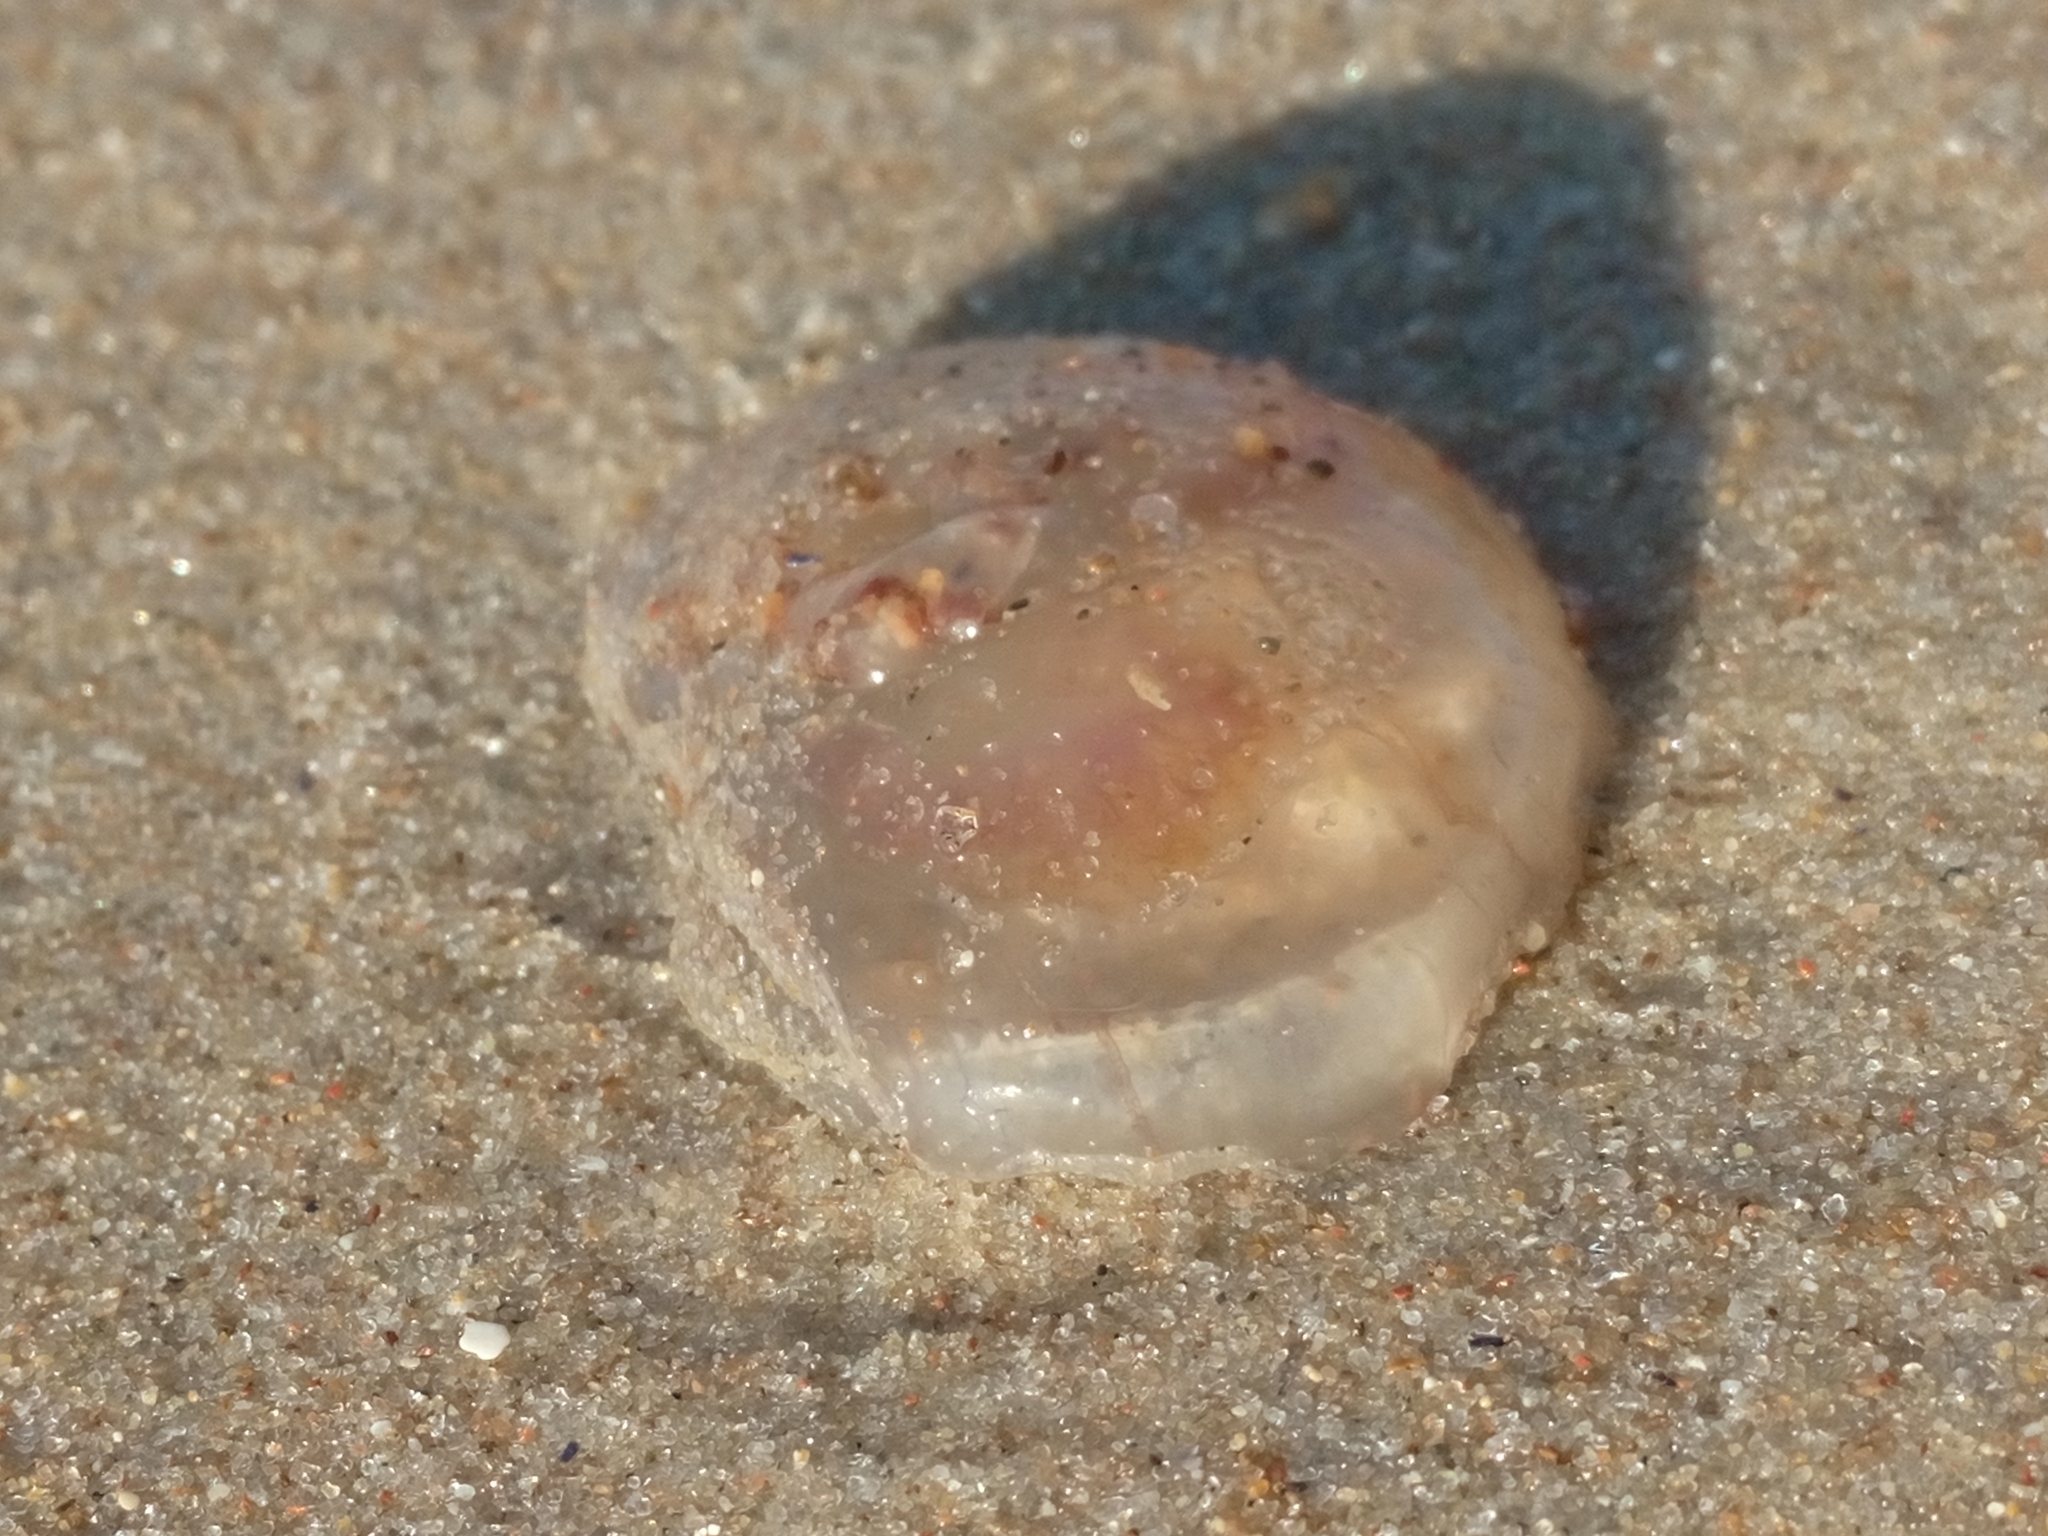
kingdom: Animalia
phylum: Cnidaria
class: Scyphozoa
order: Semaeostomeae
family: Ulmaridae
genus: Aurelia
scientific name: Aurelia aurita
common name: Moon jellyfish
